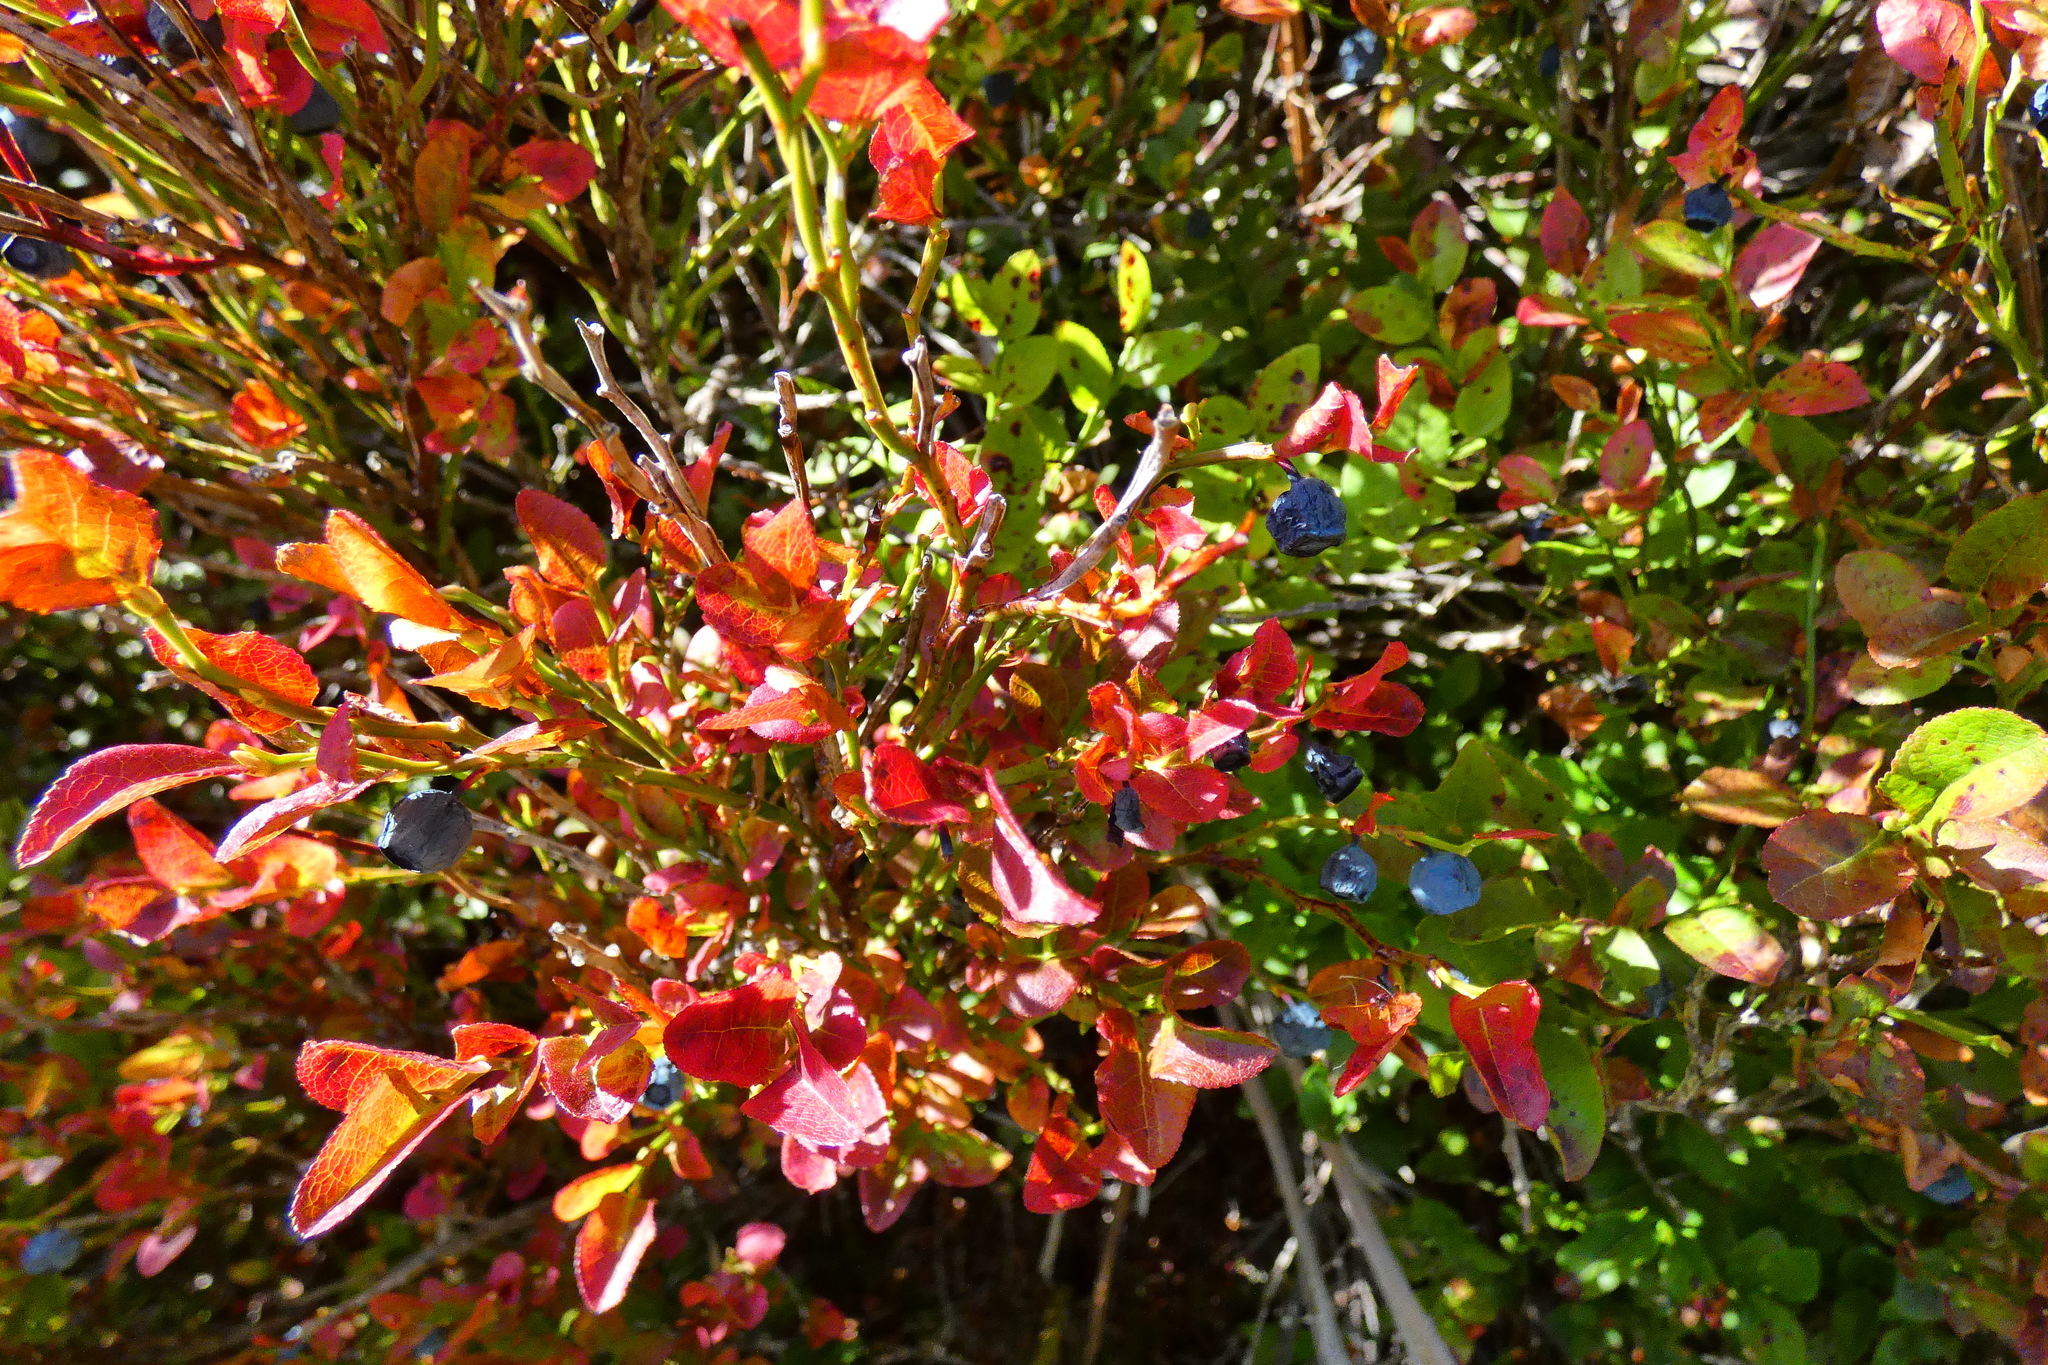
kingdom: Plantae
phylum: Tracheophyta
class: Magnoliopsida
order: Ericales
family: Ericaceae
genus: Vaccinium
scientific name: Vaccinium myrtillus
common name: Bilberry
